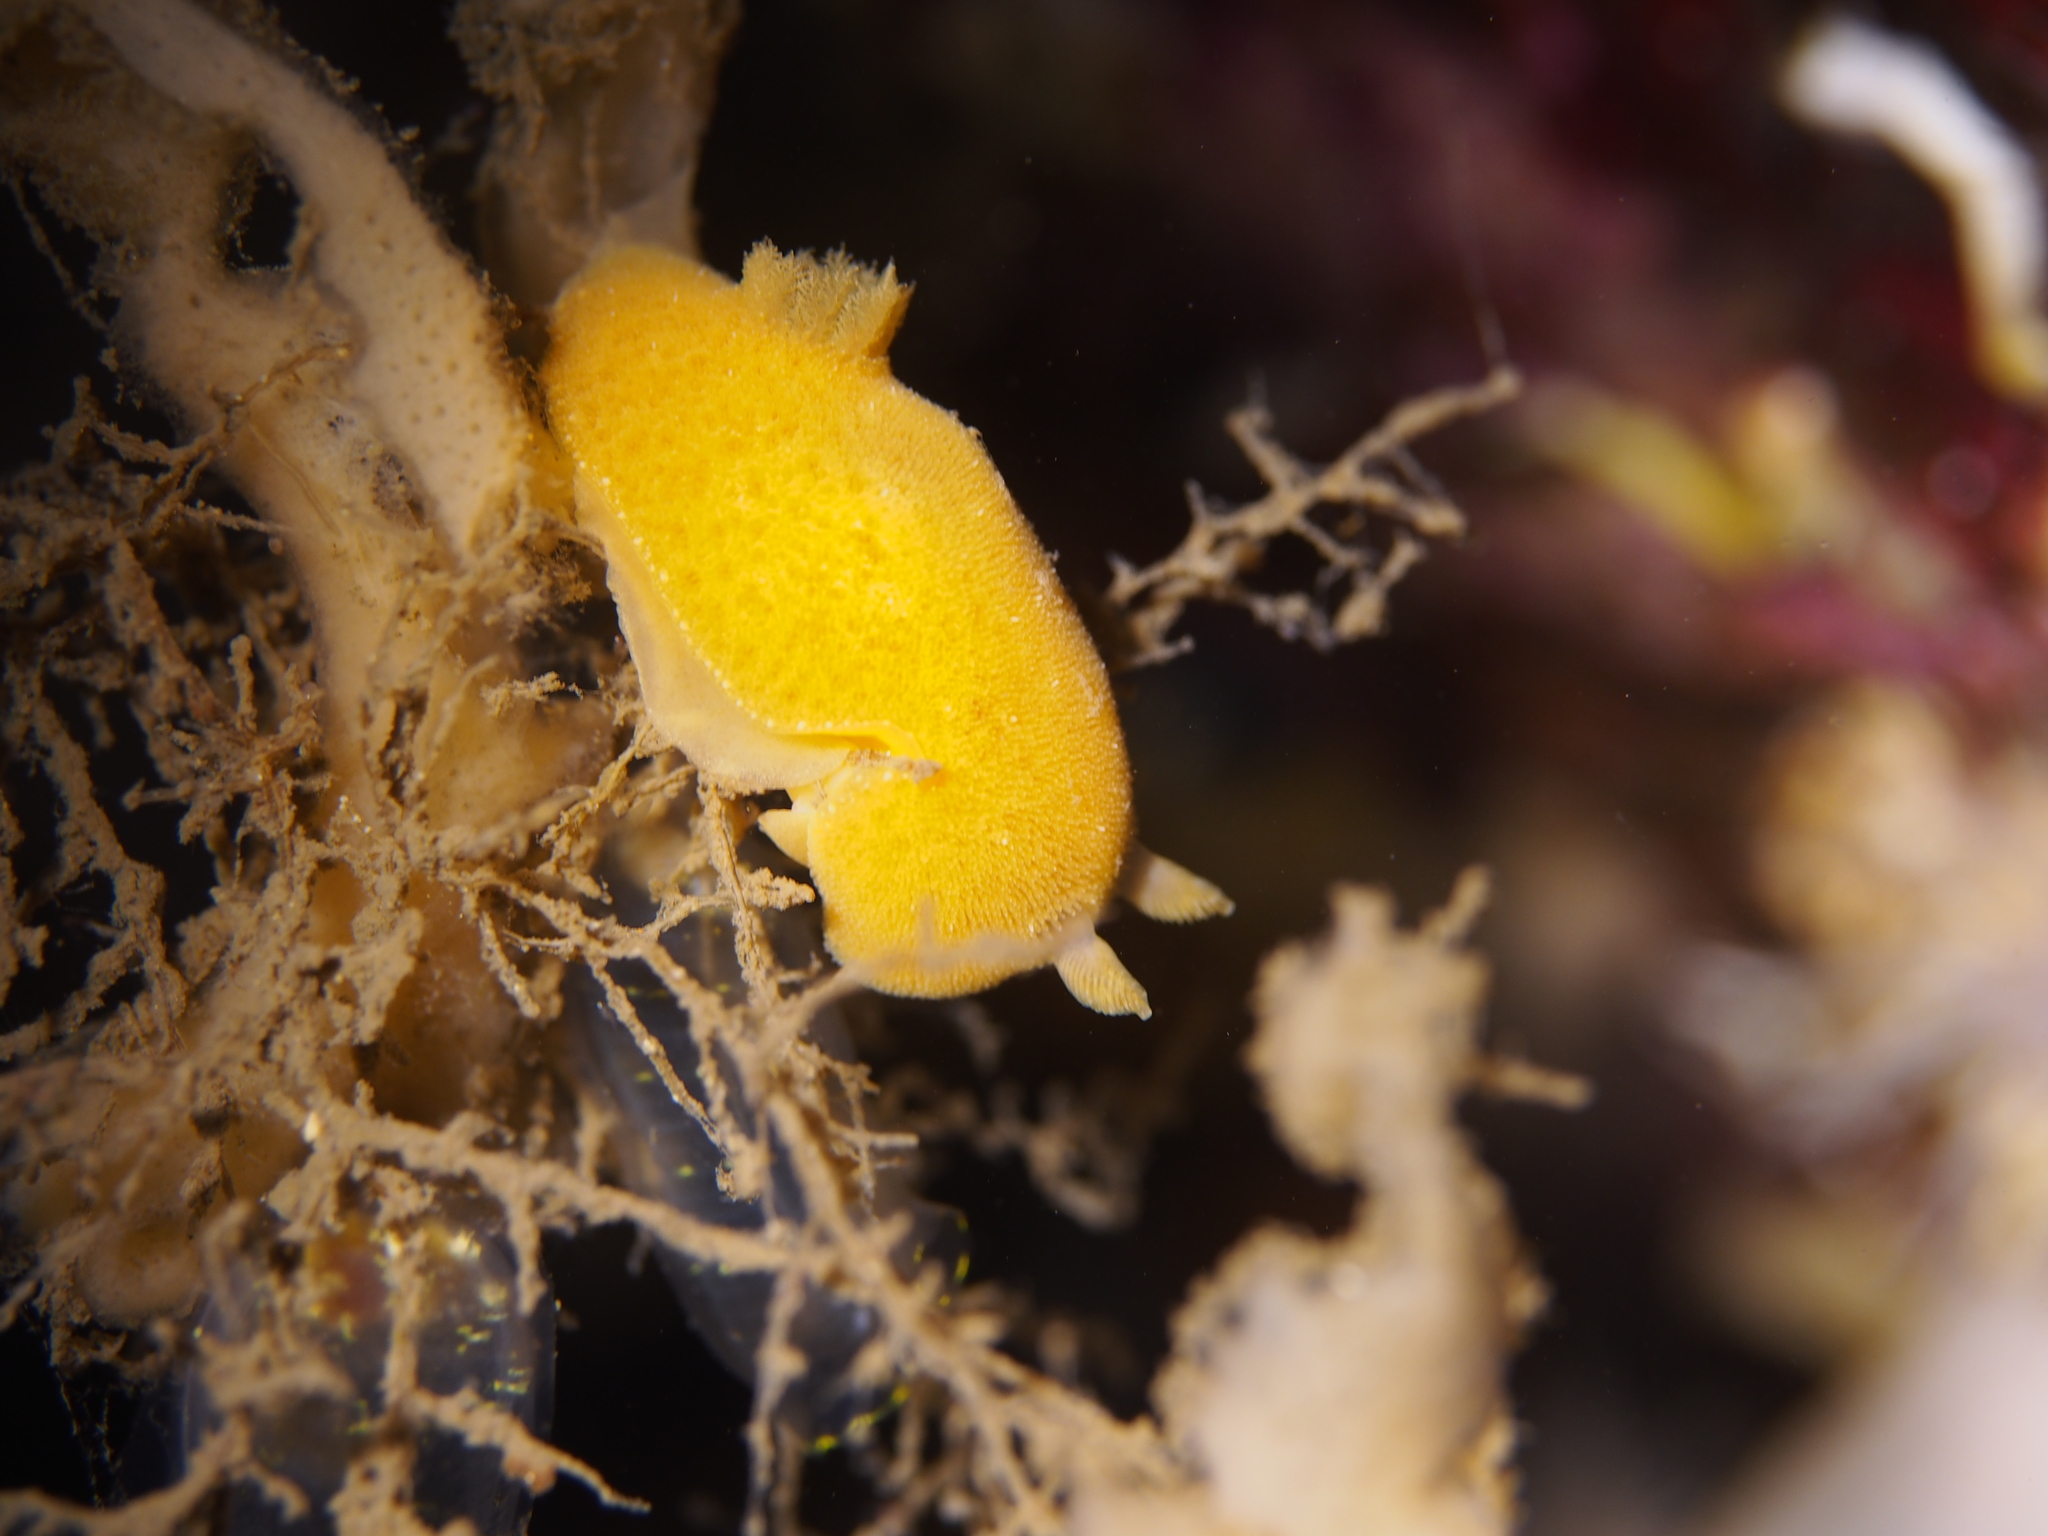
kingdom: Animalia
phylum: Mollusca
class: Gastropoda
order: Nudibranchia
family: Discodorididae
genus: Jorunna
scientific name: Jorunna tomentosa
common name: Grey sea slug
